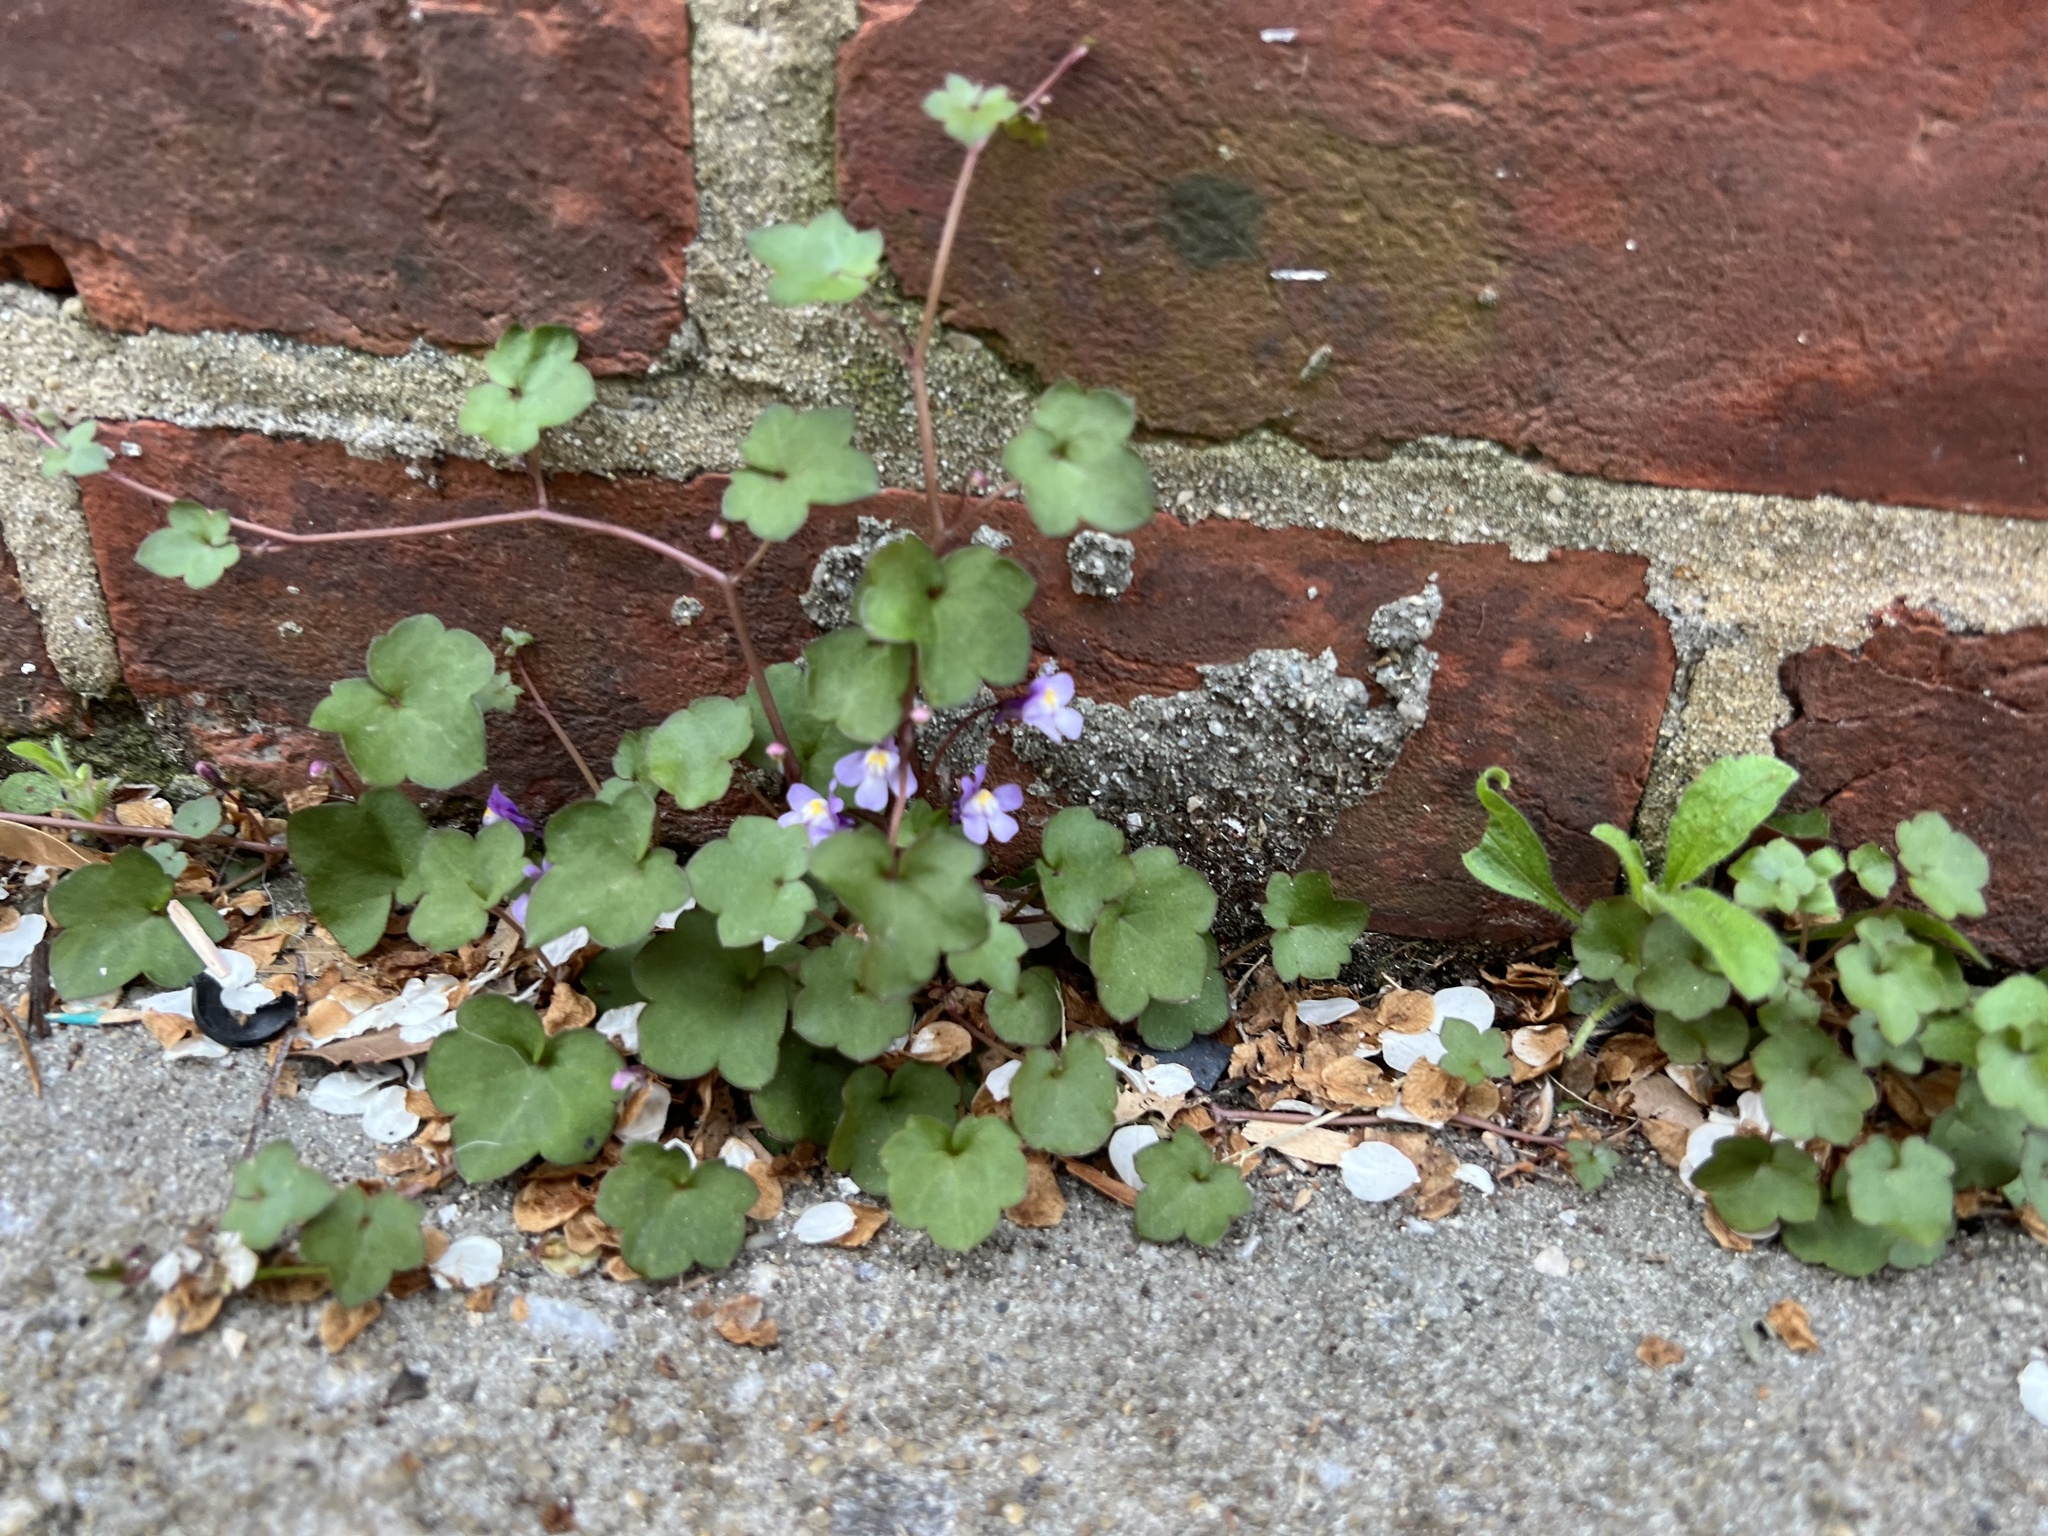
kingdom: Plantae
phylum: Tracheophyta
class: Magnoliopsida
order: Lamiales
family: Plantaginaceae
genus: Cymbalaria
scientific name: Cymbalaria muralis
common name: Ivy-leaved toadflax
